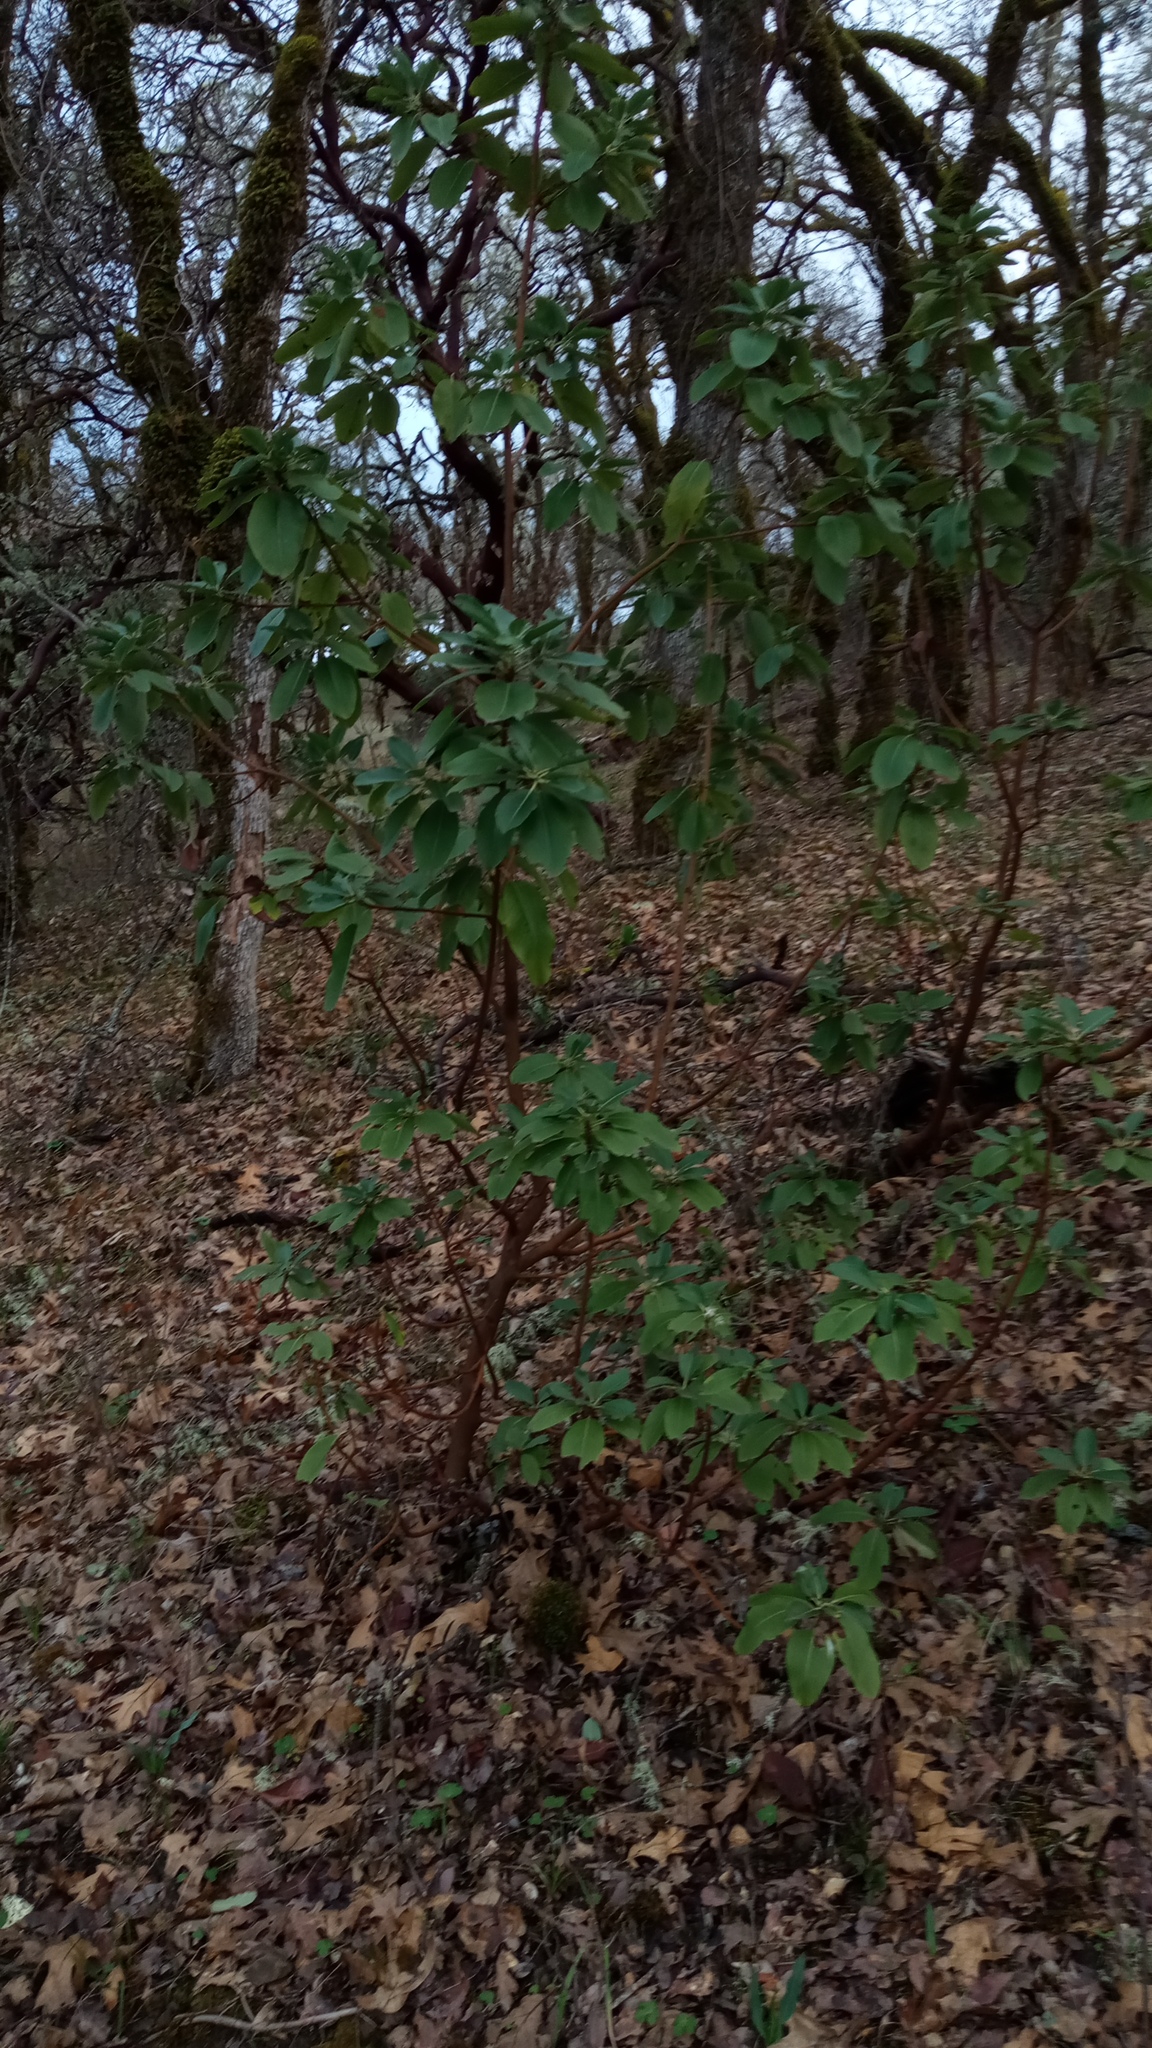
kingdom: Plantae
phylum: Tracheophyta
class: Magnoliopsida
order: Ericales
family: Ericaceae
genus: Arbutus
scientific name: Arbutus menziesii
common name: Pacific madrone
